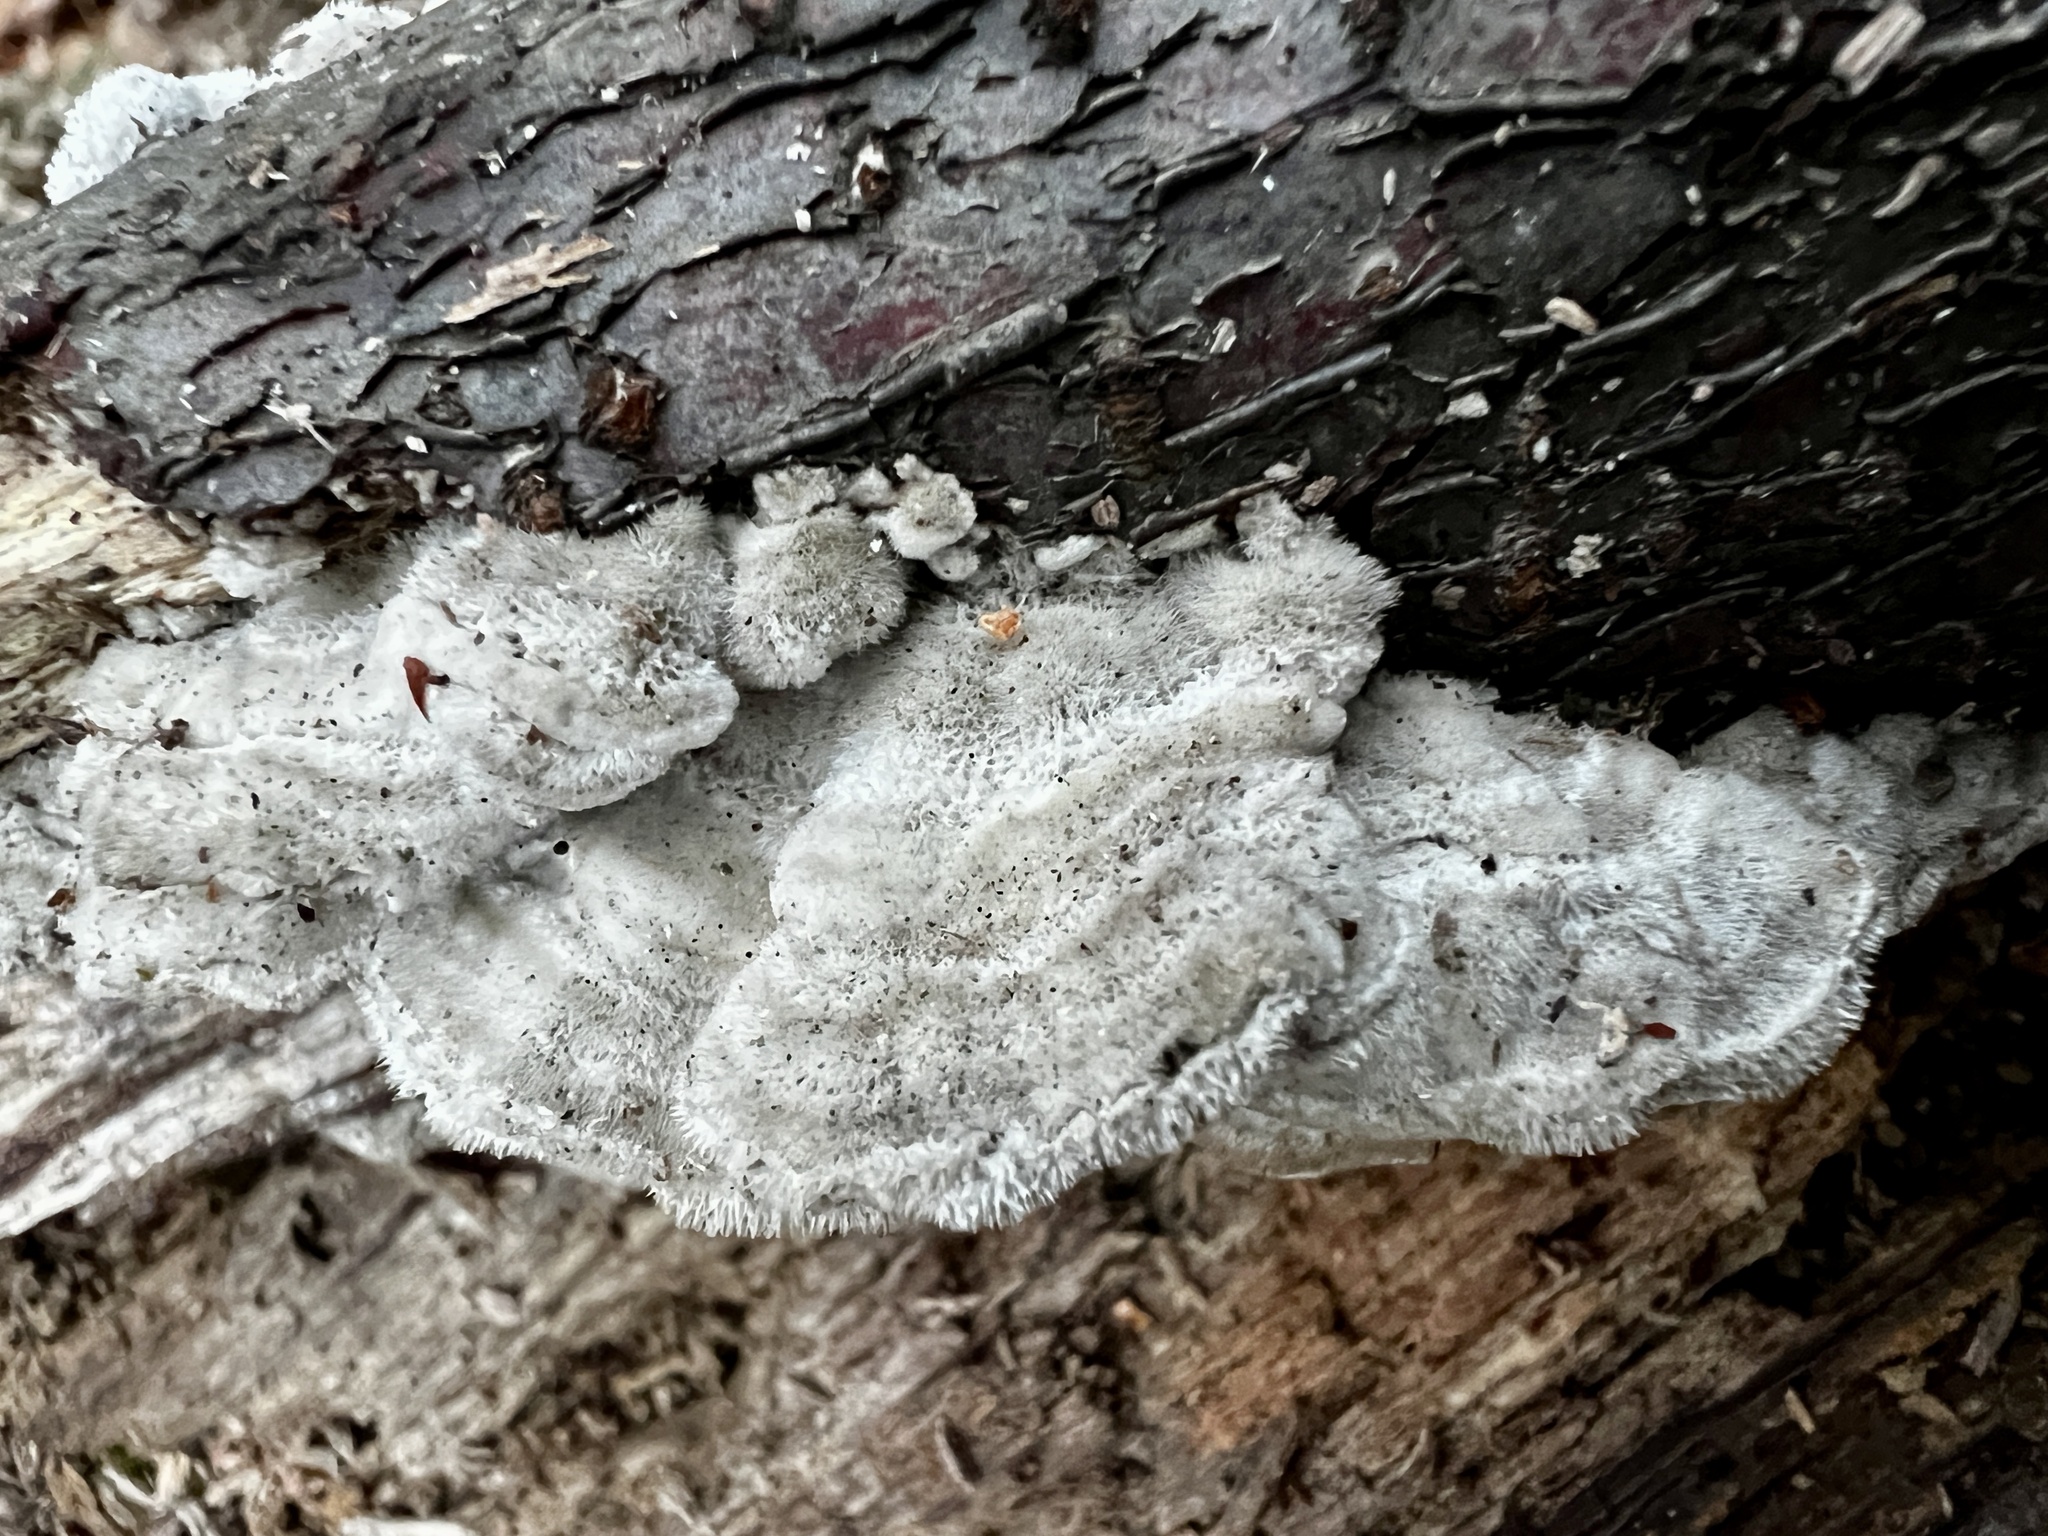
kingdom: Fungi
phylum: Basidiomycota
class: Agaricomycetes
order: Polyporales
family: Cerrenaceae
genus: Cerrena
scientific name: Cerrena unicolor
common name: Mossy maze polypore
